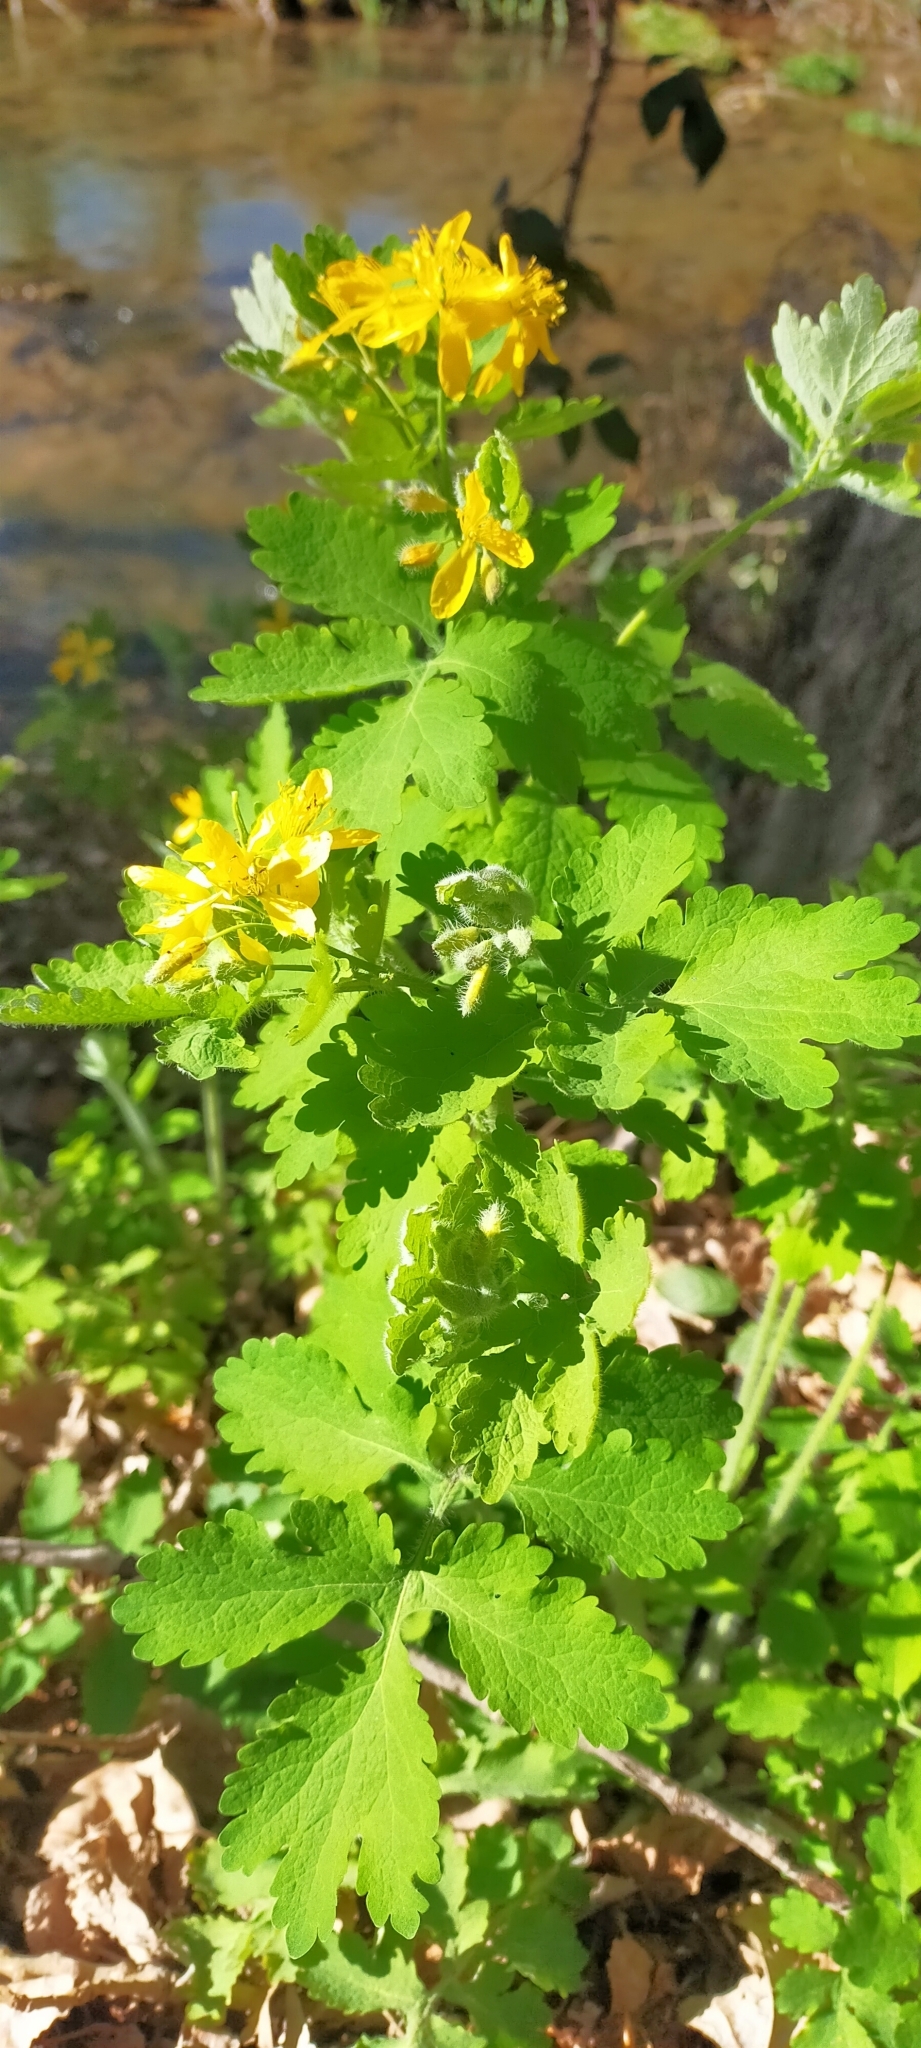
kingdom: Plantae
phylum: Tracheophyta
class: Magnoliopsida
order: Ranunculales
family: Papaveraceae
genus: Chelidonium
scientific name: Chelidonium majus
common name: Greater celandine
